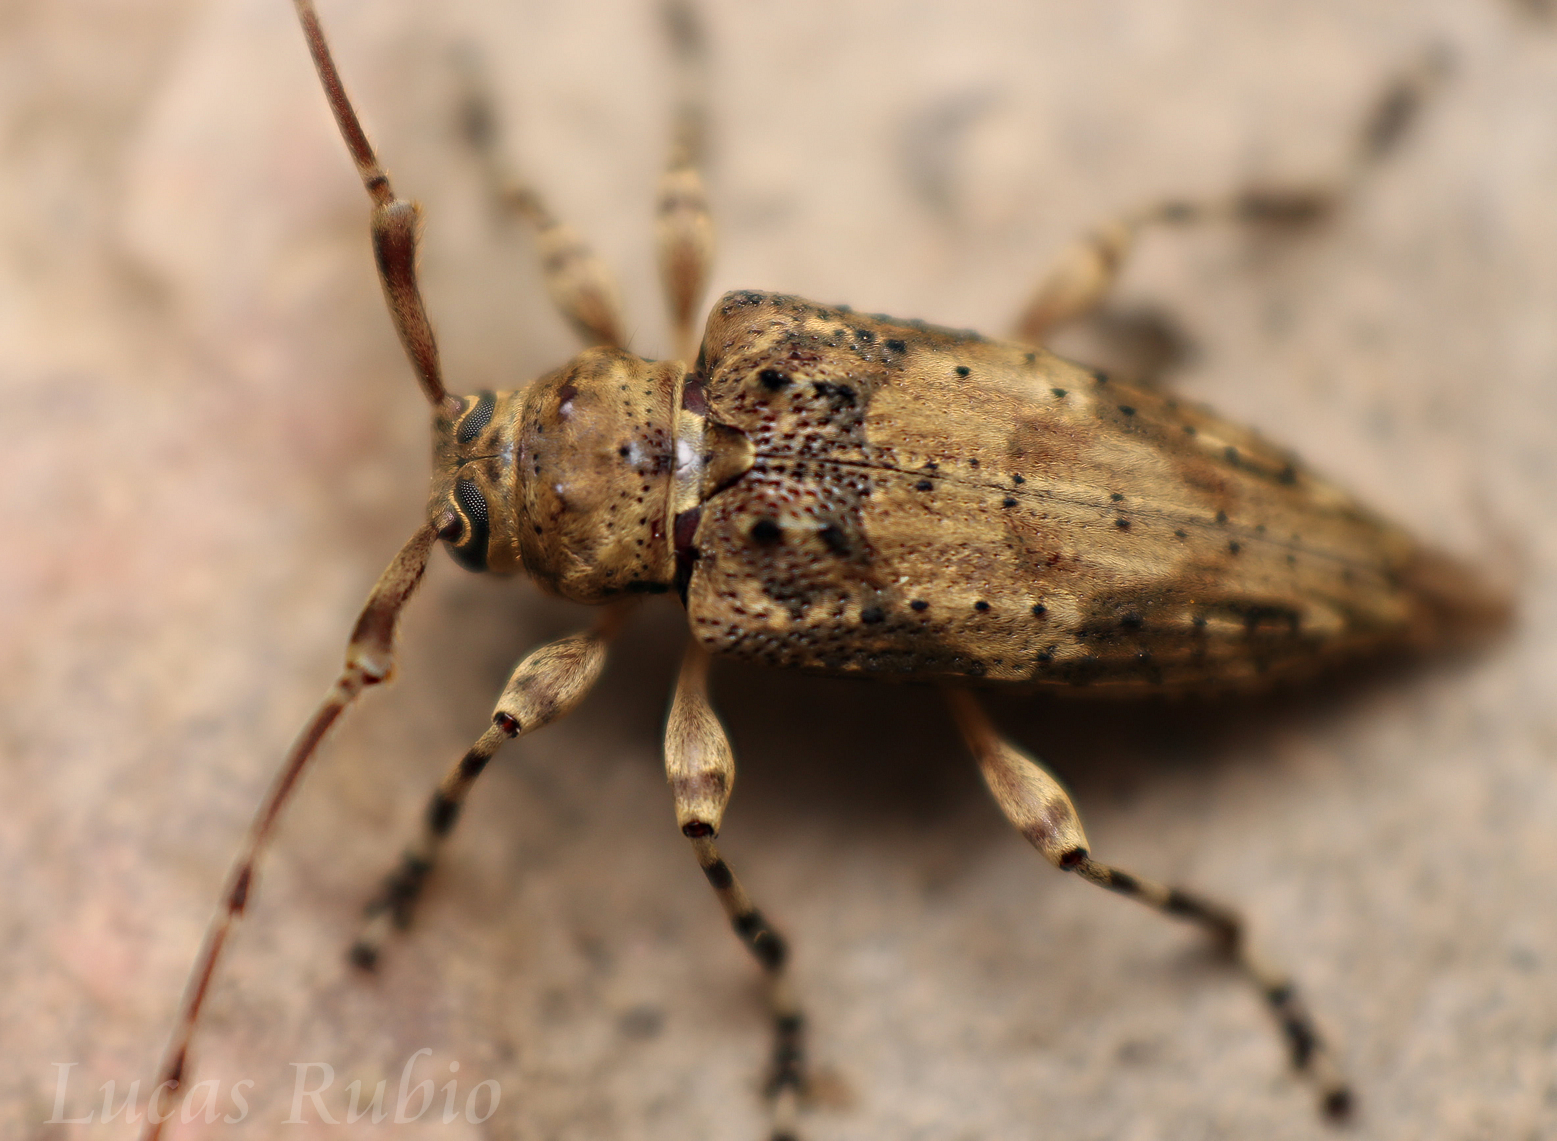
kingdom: Animalia
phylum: Arthropoda
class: Insecta
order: Coleoptera
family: Cerambycidae
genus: Nealcidion
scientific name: Nealcidion bicristatum
